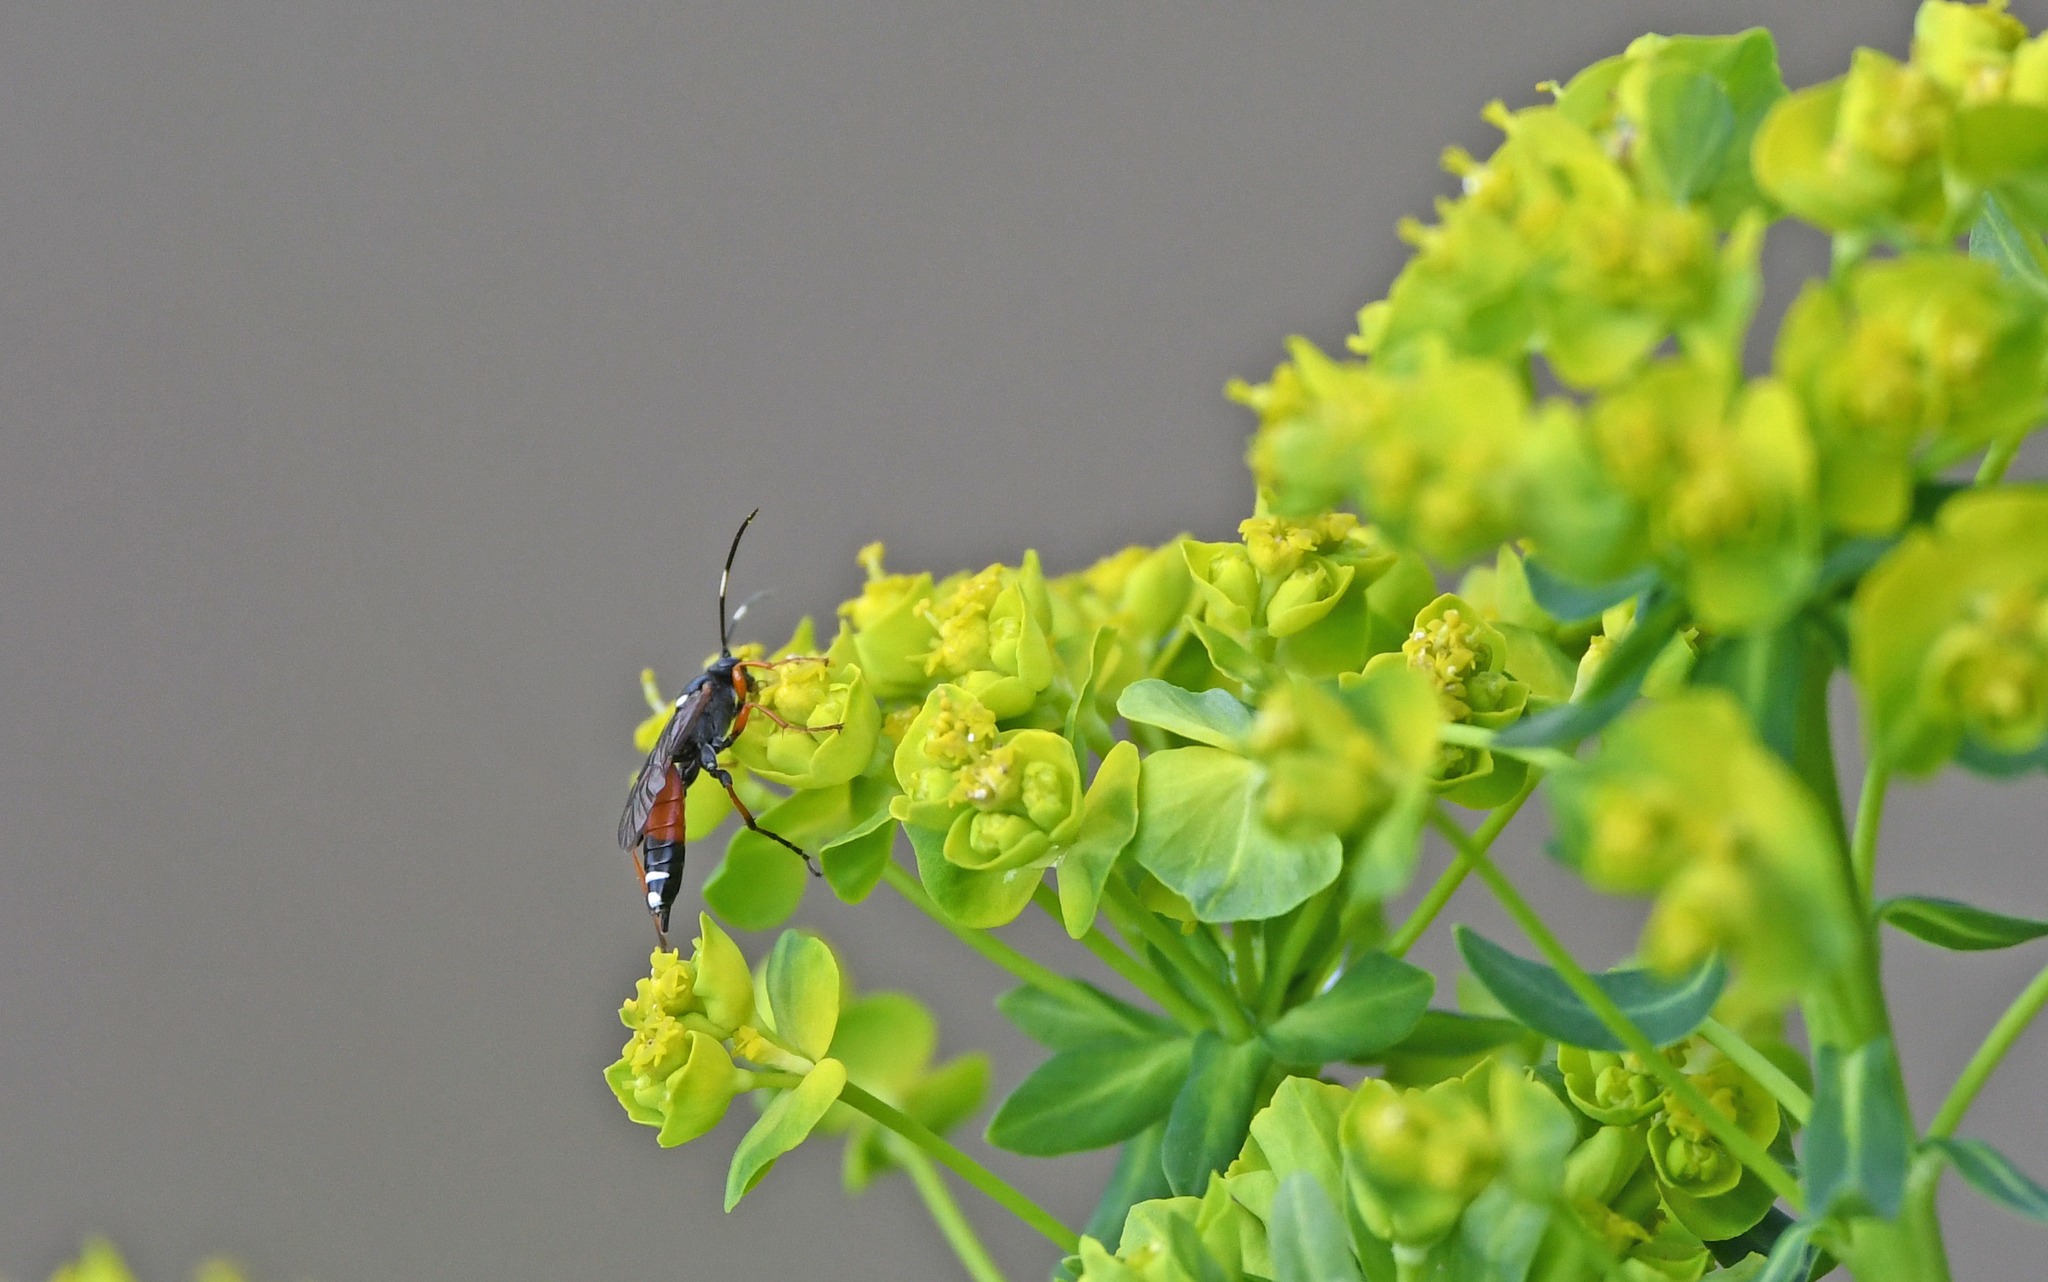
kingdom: Animalia
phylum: Arthropoda
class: Insecta
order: Hymenoptera
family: Ichneumonidae
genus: Exephanes
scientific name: Exephanes ischioxanthus
